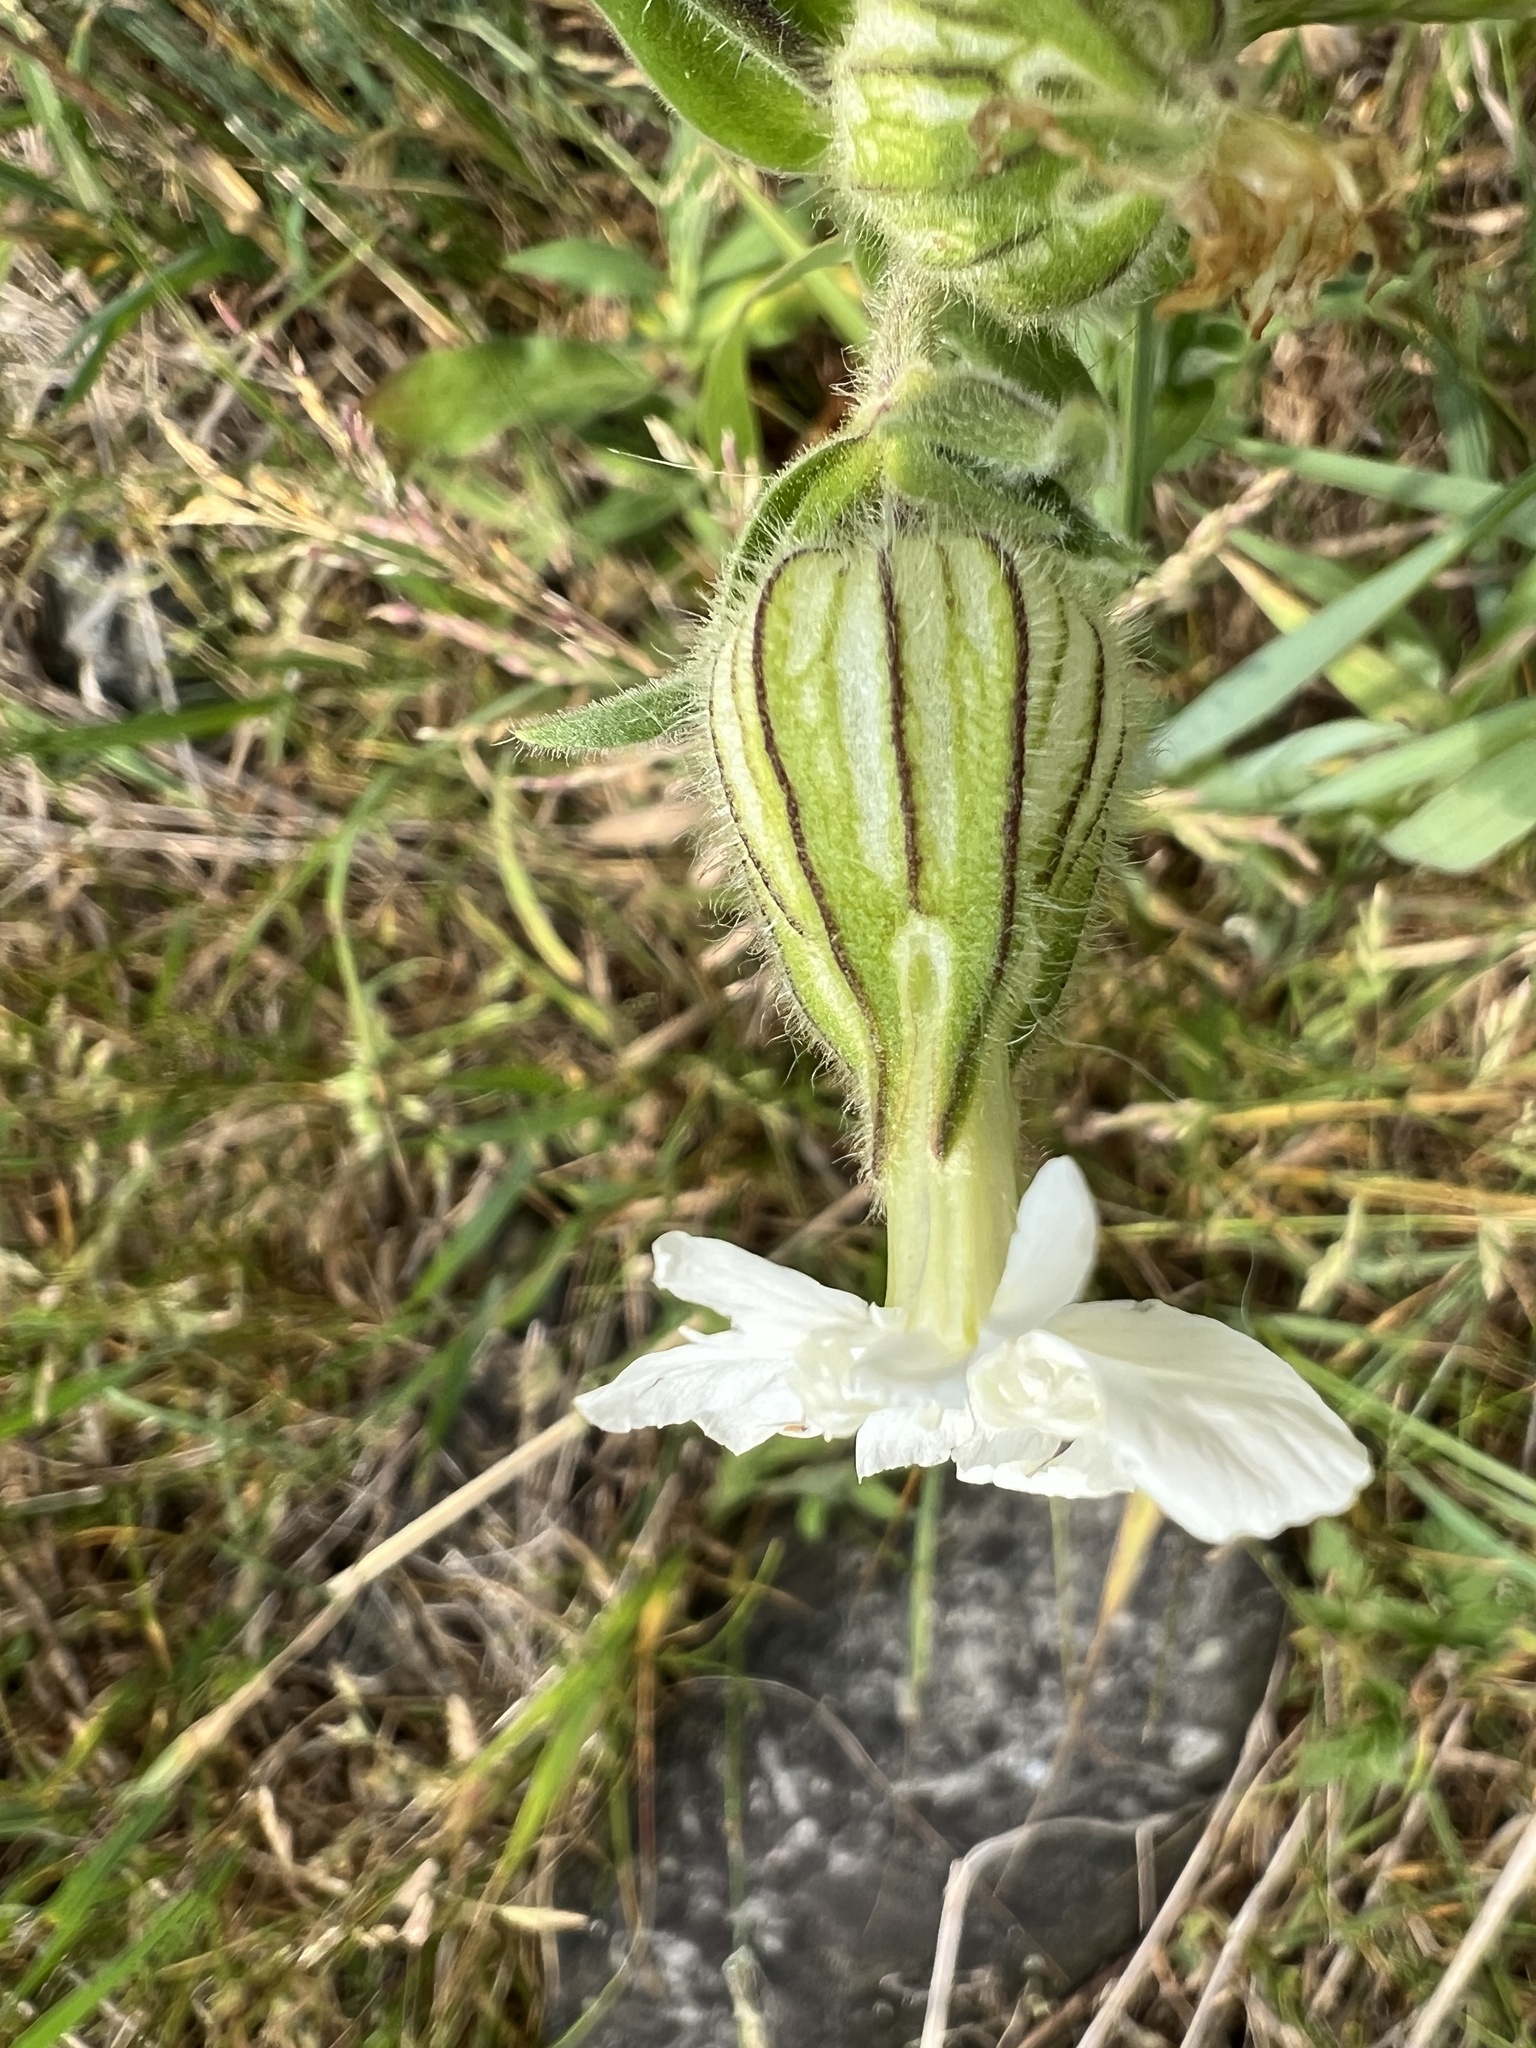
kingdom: Plantae
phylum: Tracheophyta
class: Magnoliopsida
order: Caryophyllales
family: Caryophyllaceae
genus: Silene
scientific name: Silene latifolia
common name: White campion
